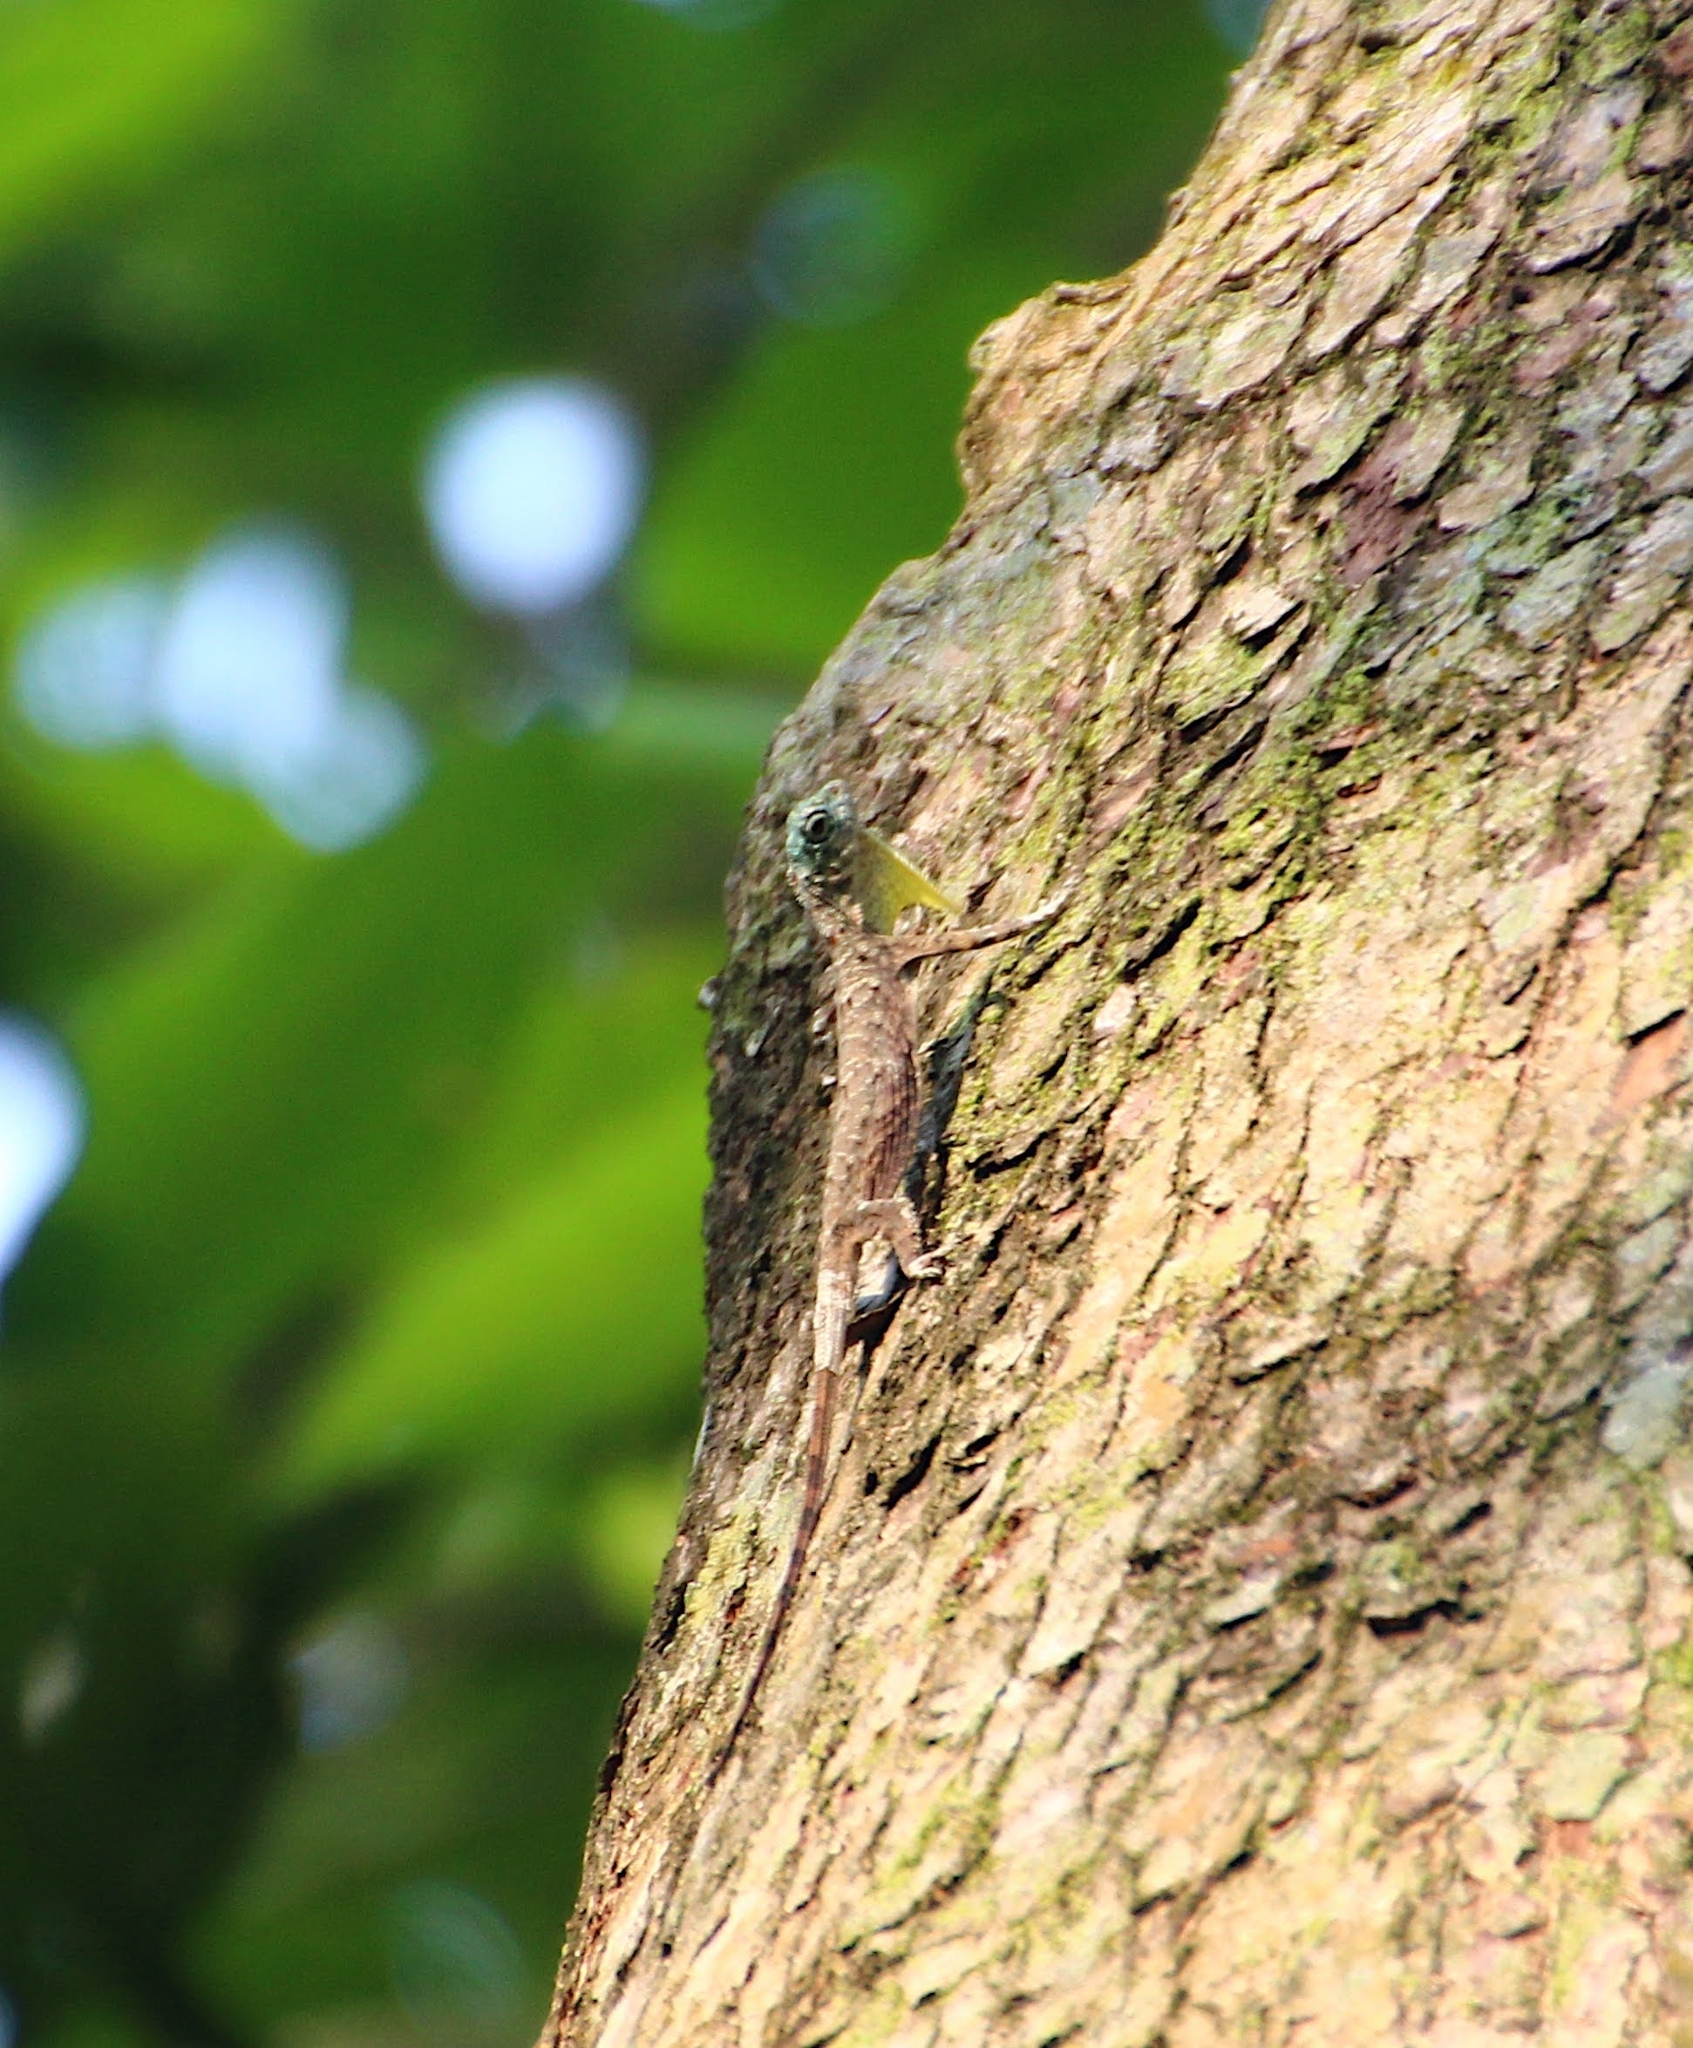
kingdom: Animalia
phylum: Chordata
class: Squamata
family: Agamidae
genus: Draco
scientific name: Draco sumatranus
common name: Common gliding lizard
